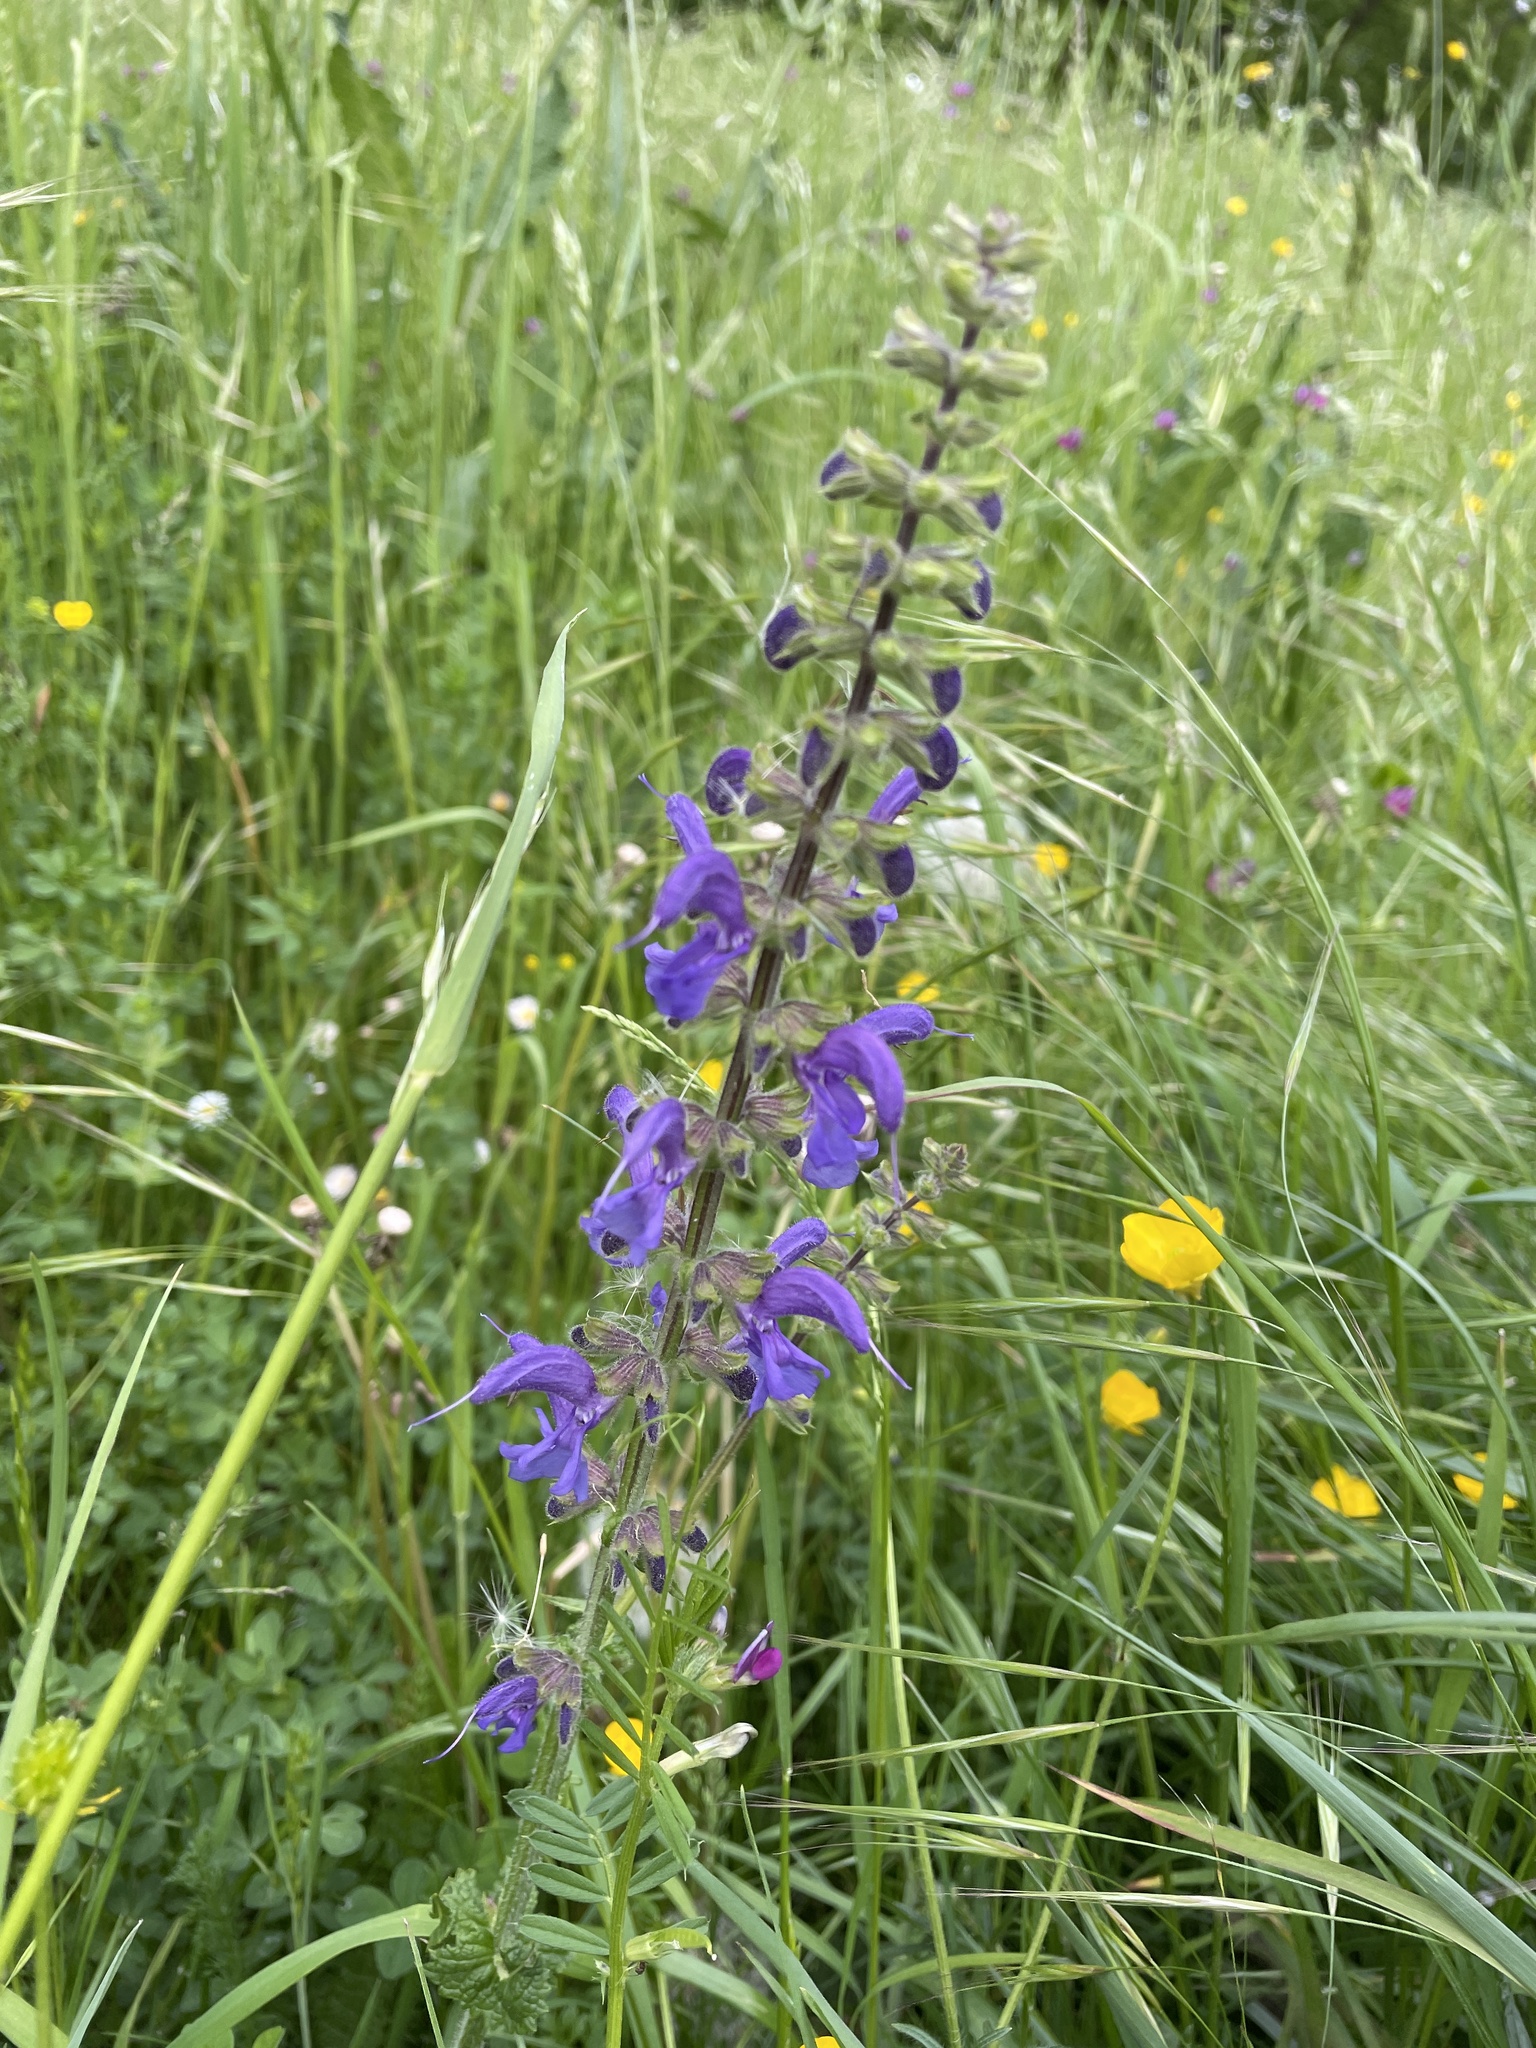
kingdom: Plantae
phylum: Tracheophyta
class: Magnoliopsida
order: Lamiales
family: Lamiaceae
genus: Salvia
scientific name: Salvia pratensis
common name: Meadow sage
